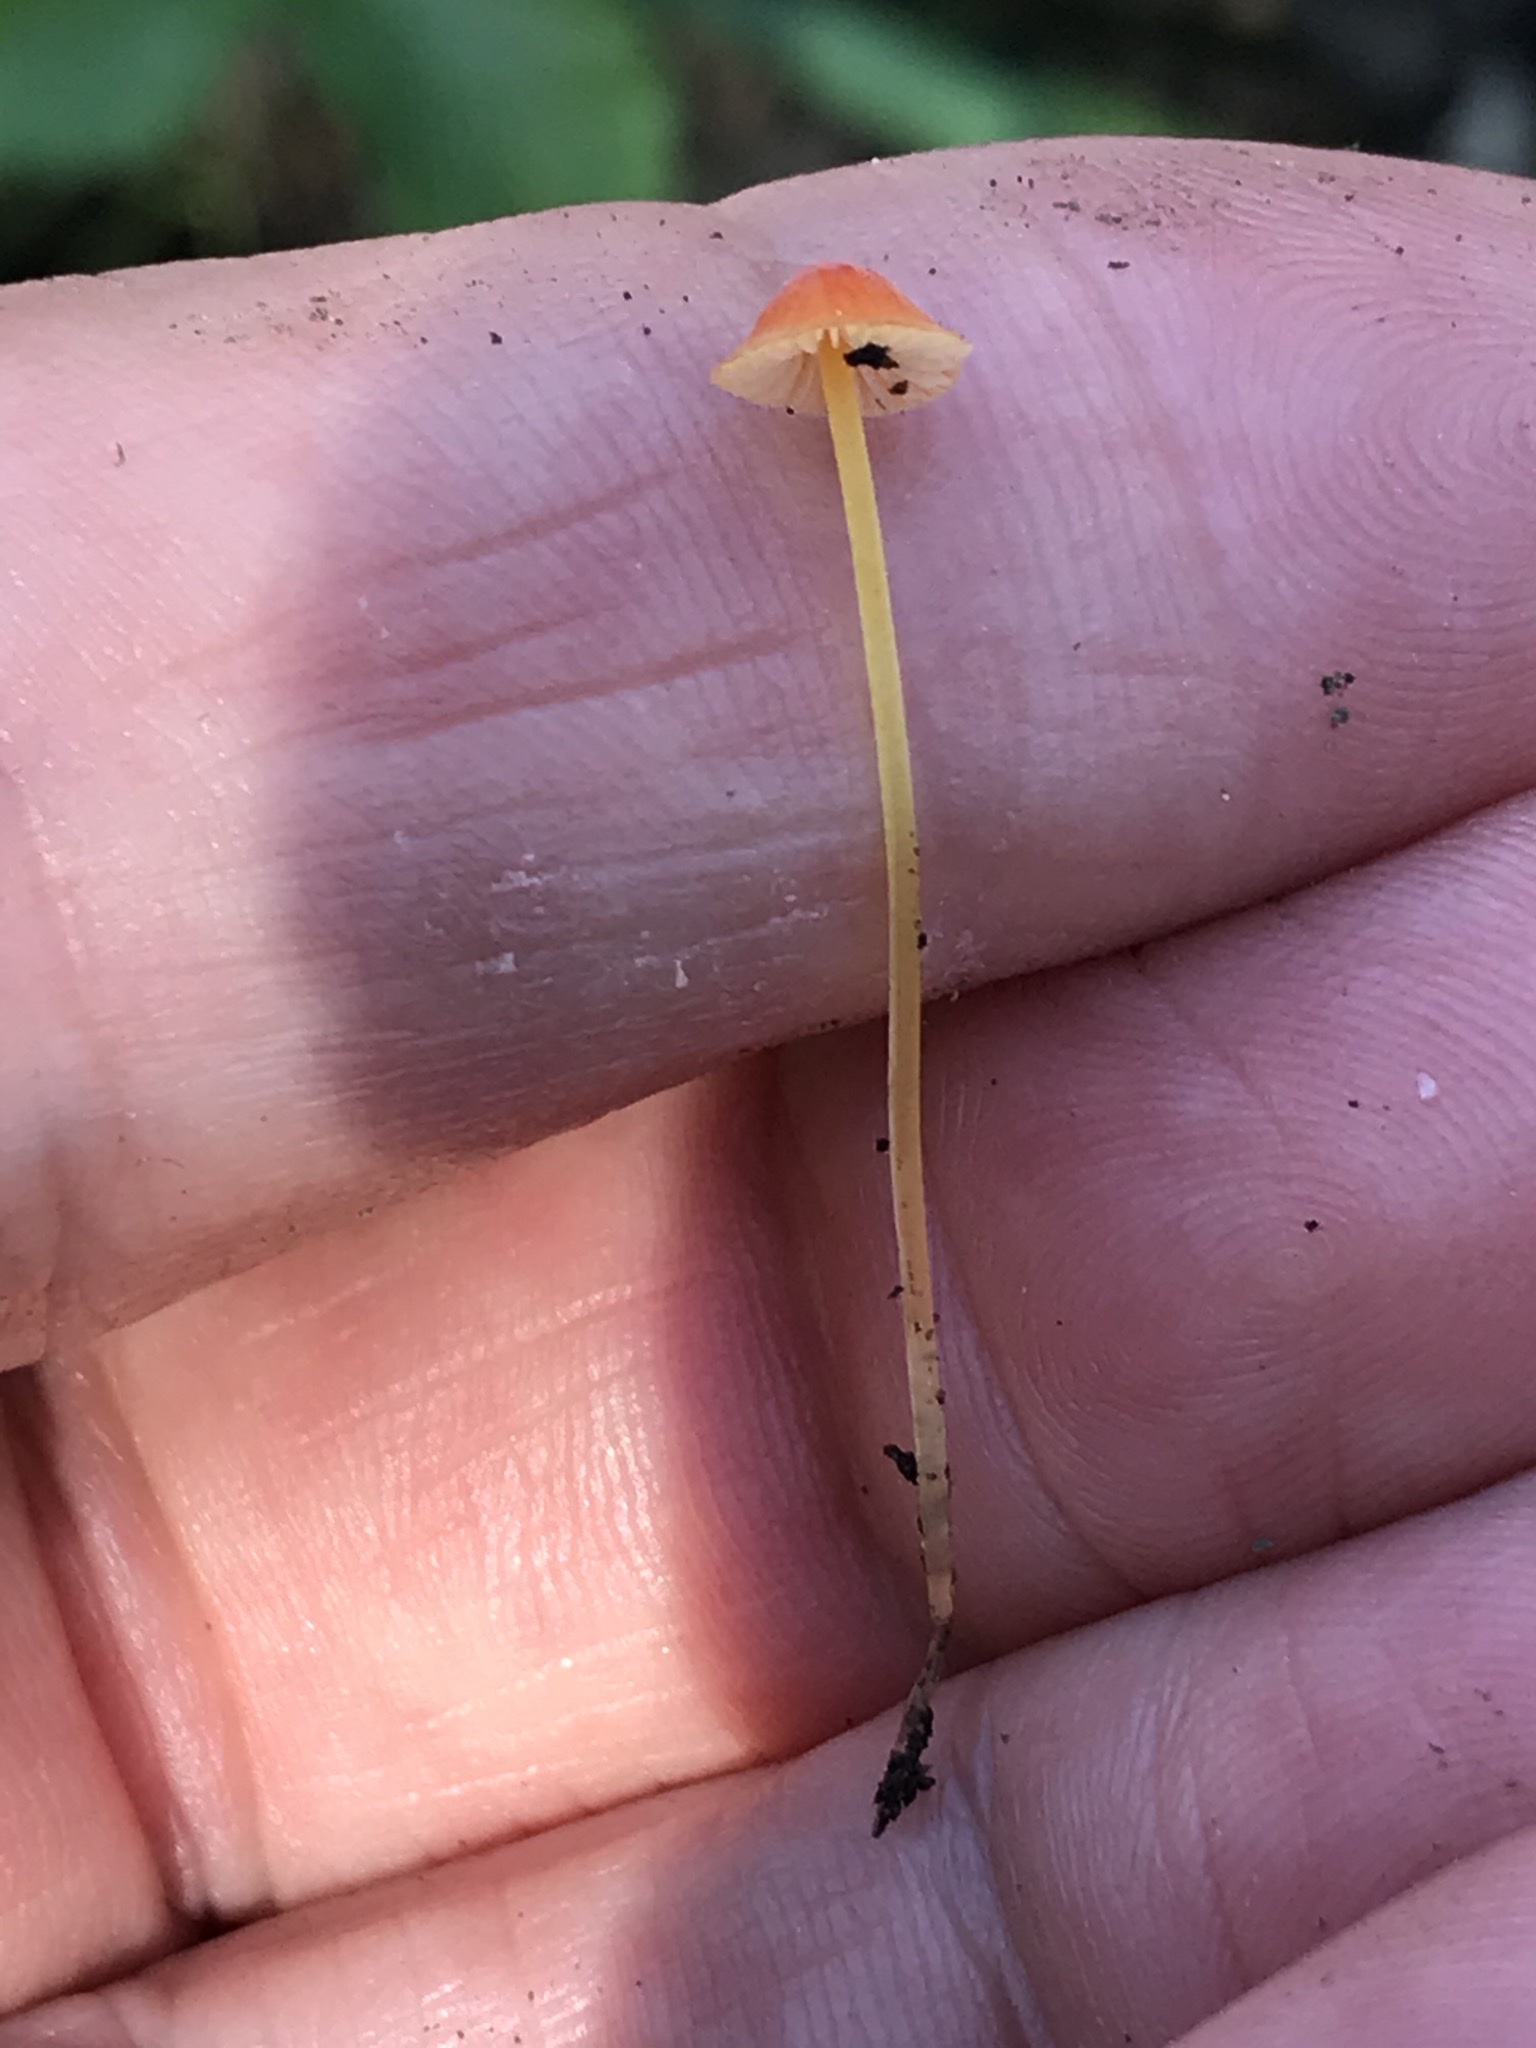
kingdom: Fungi
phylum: Basidiomycota
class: Agaricomycetes
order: Agaricales
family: Mycenaceae
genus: Mycena
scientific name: Mycena acicula
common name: Orange bonnet
